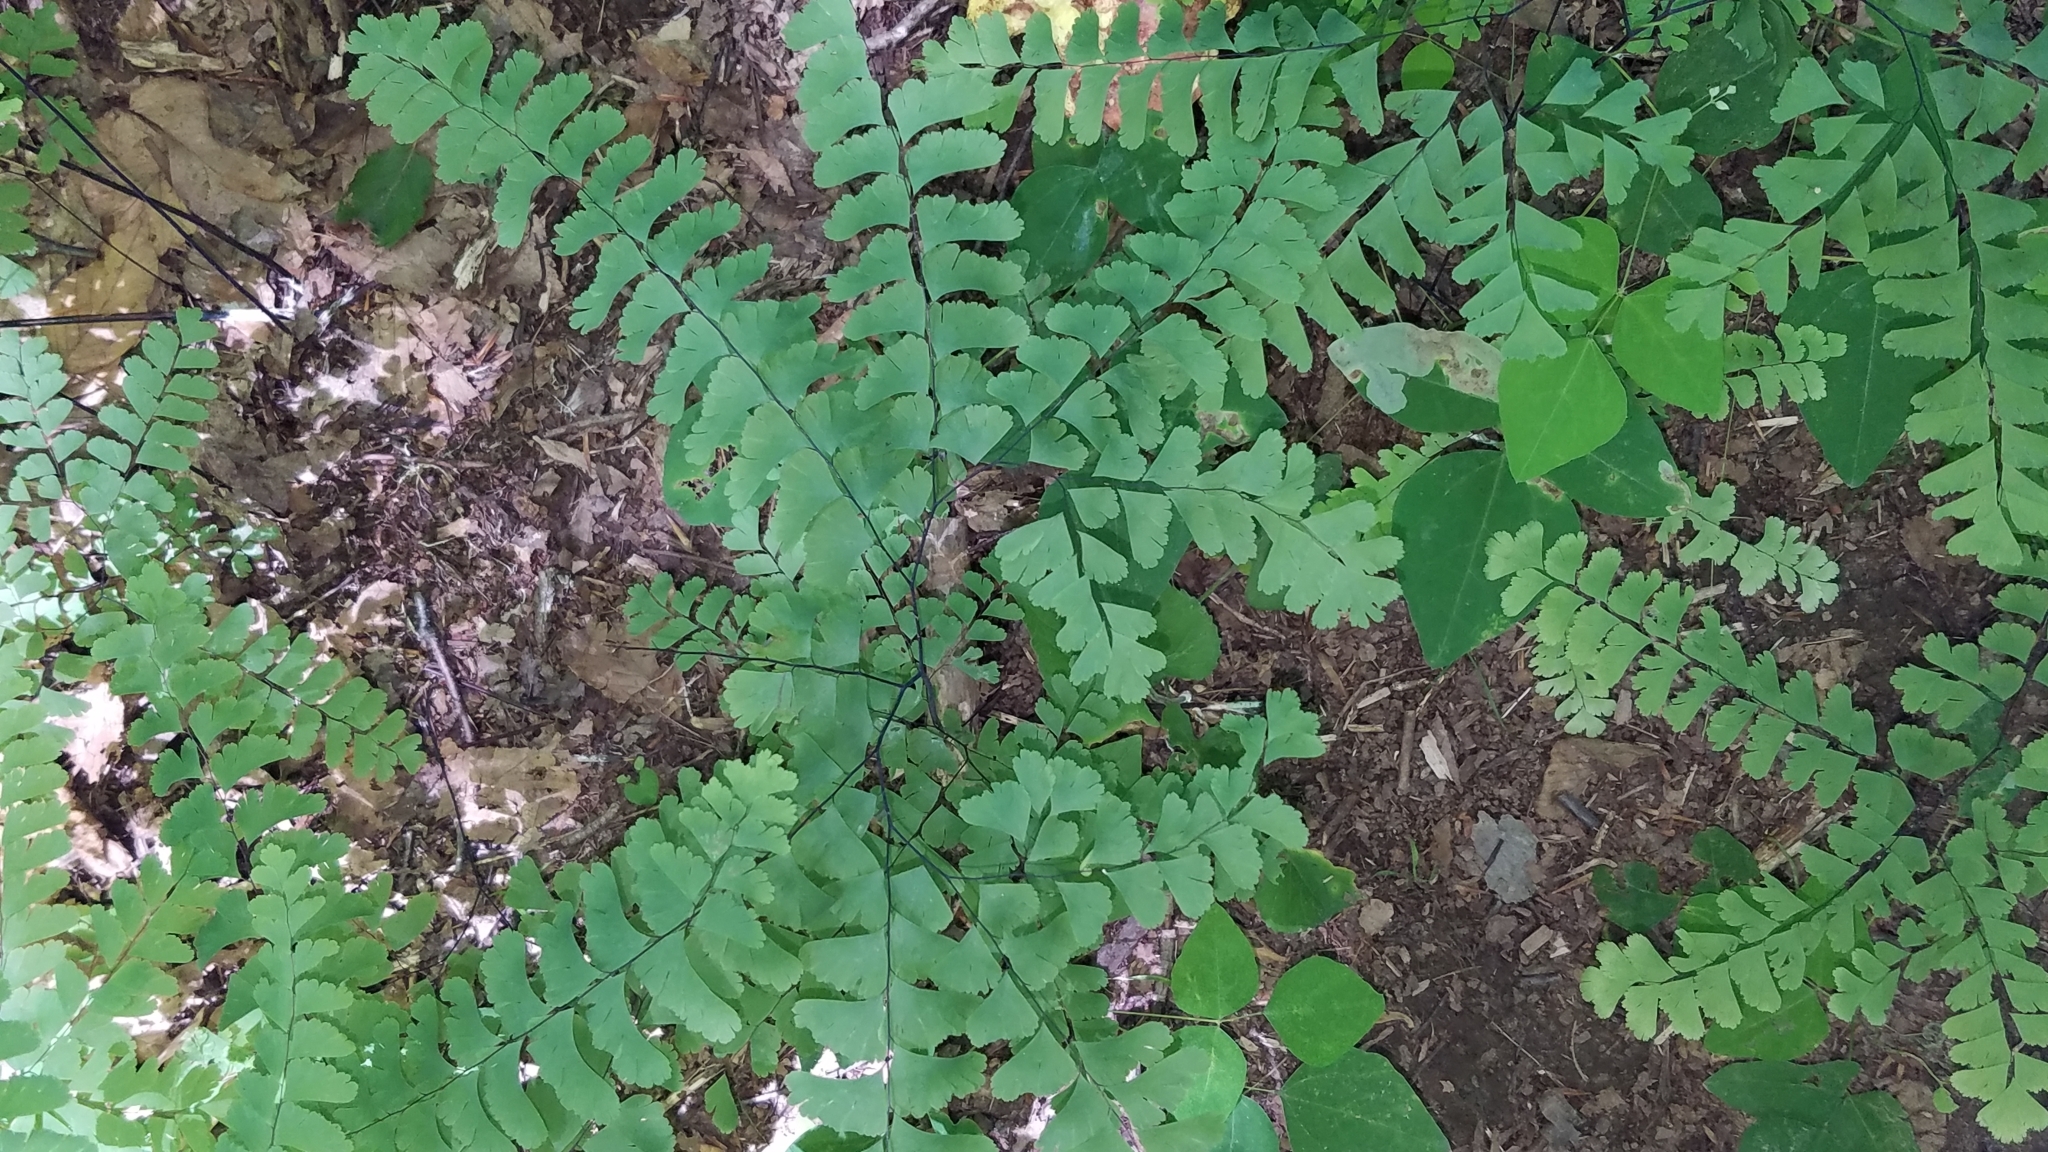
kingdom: Plantae
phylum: Tracheophyta
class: Polypodiopsida
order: Polypodiales
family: Pteridaceae
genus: Adiantum
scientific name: Adiantum pedatum
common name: Five-finger fern
